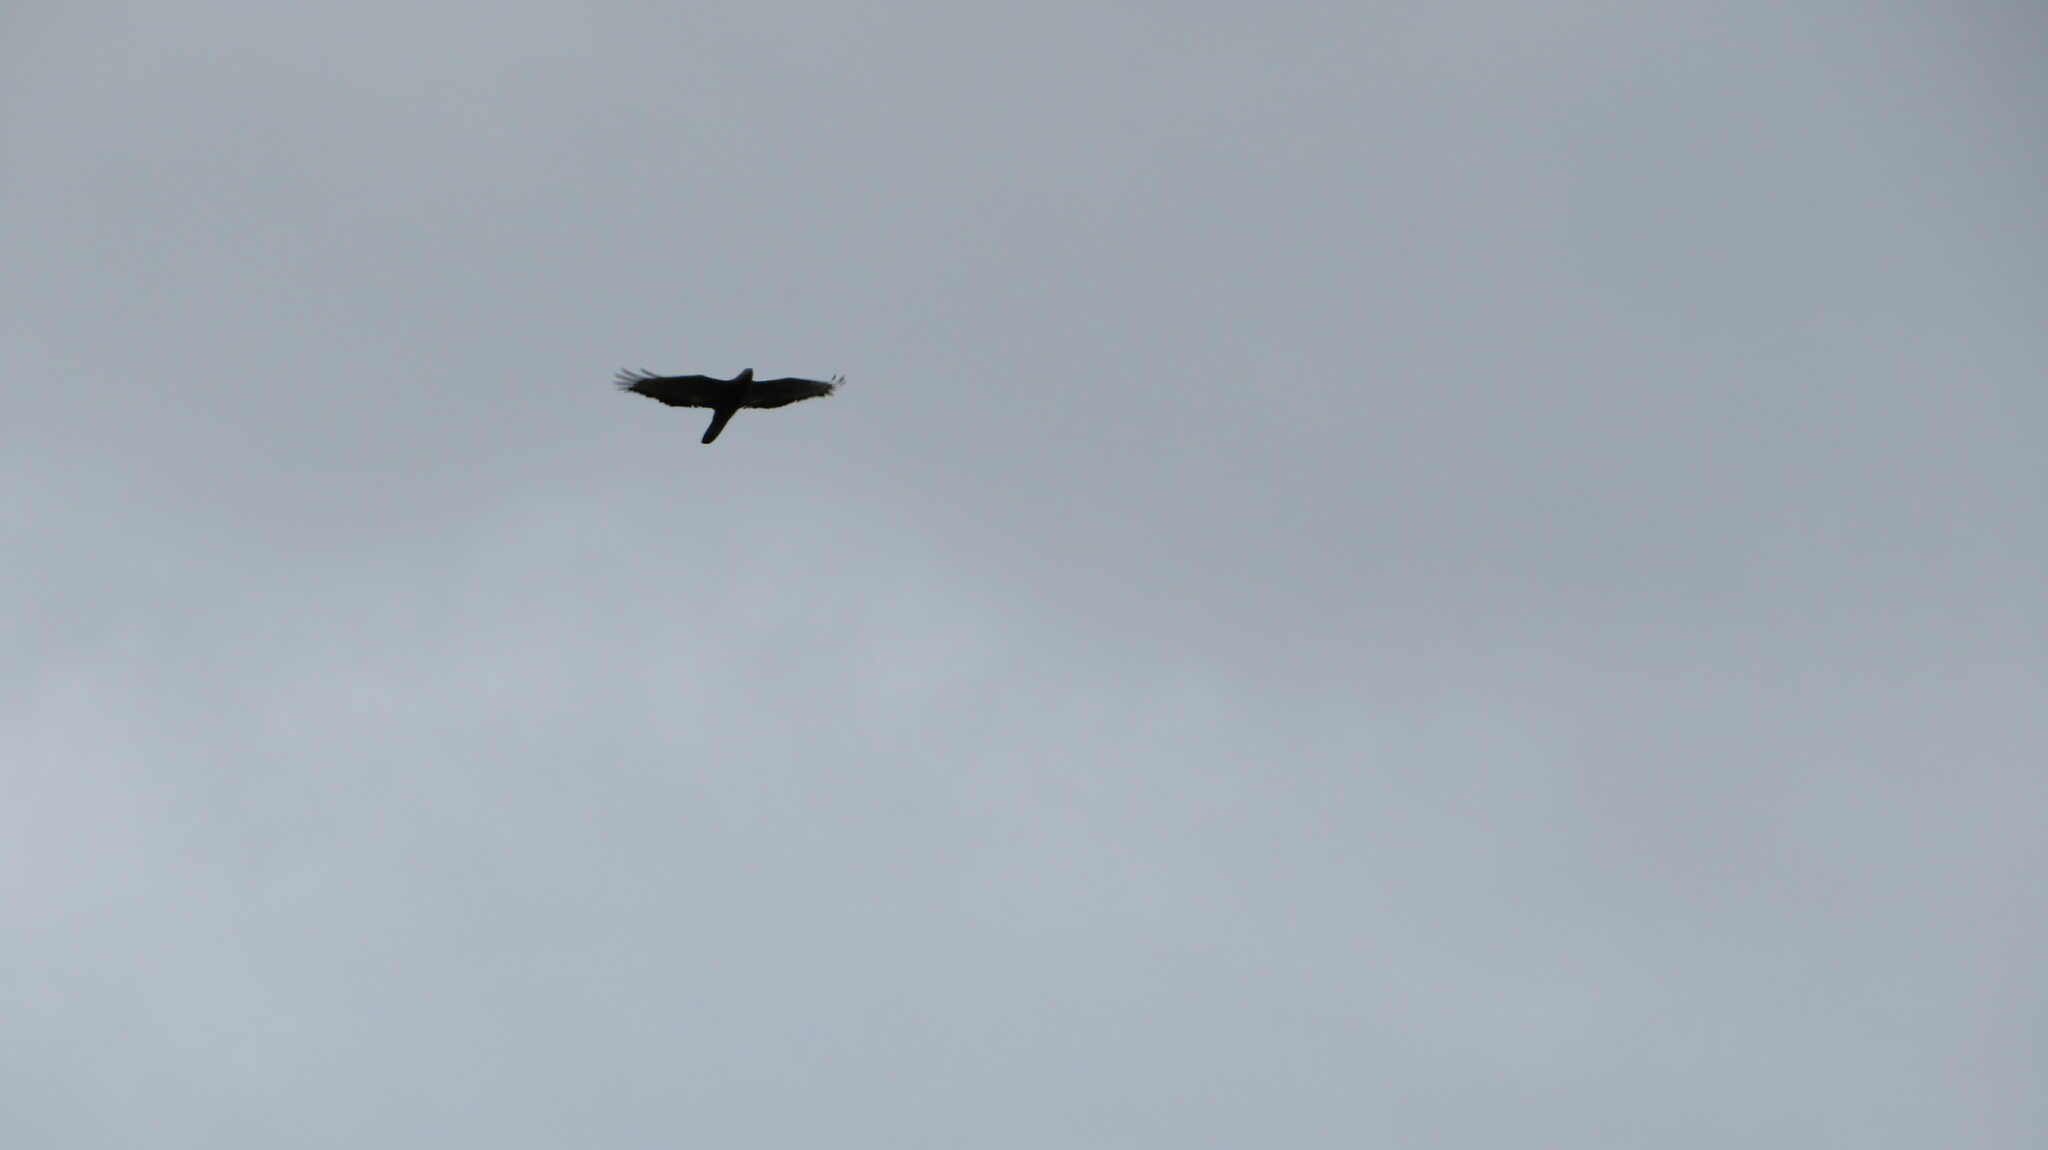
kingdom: Animalia
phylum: Chordata
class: Aves
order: Accipitriformes
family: Accipitridae
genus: Pernis
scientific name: Pernis apivorus
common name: European honey buzzard
